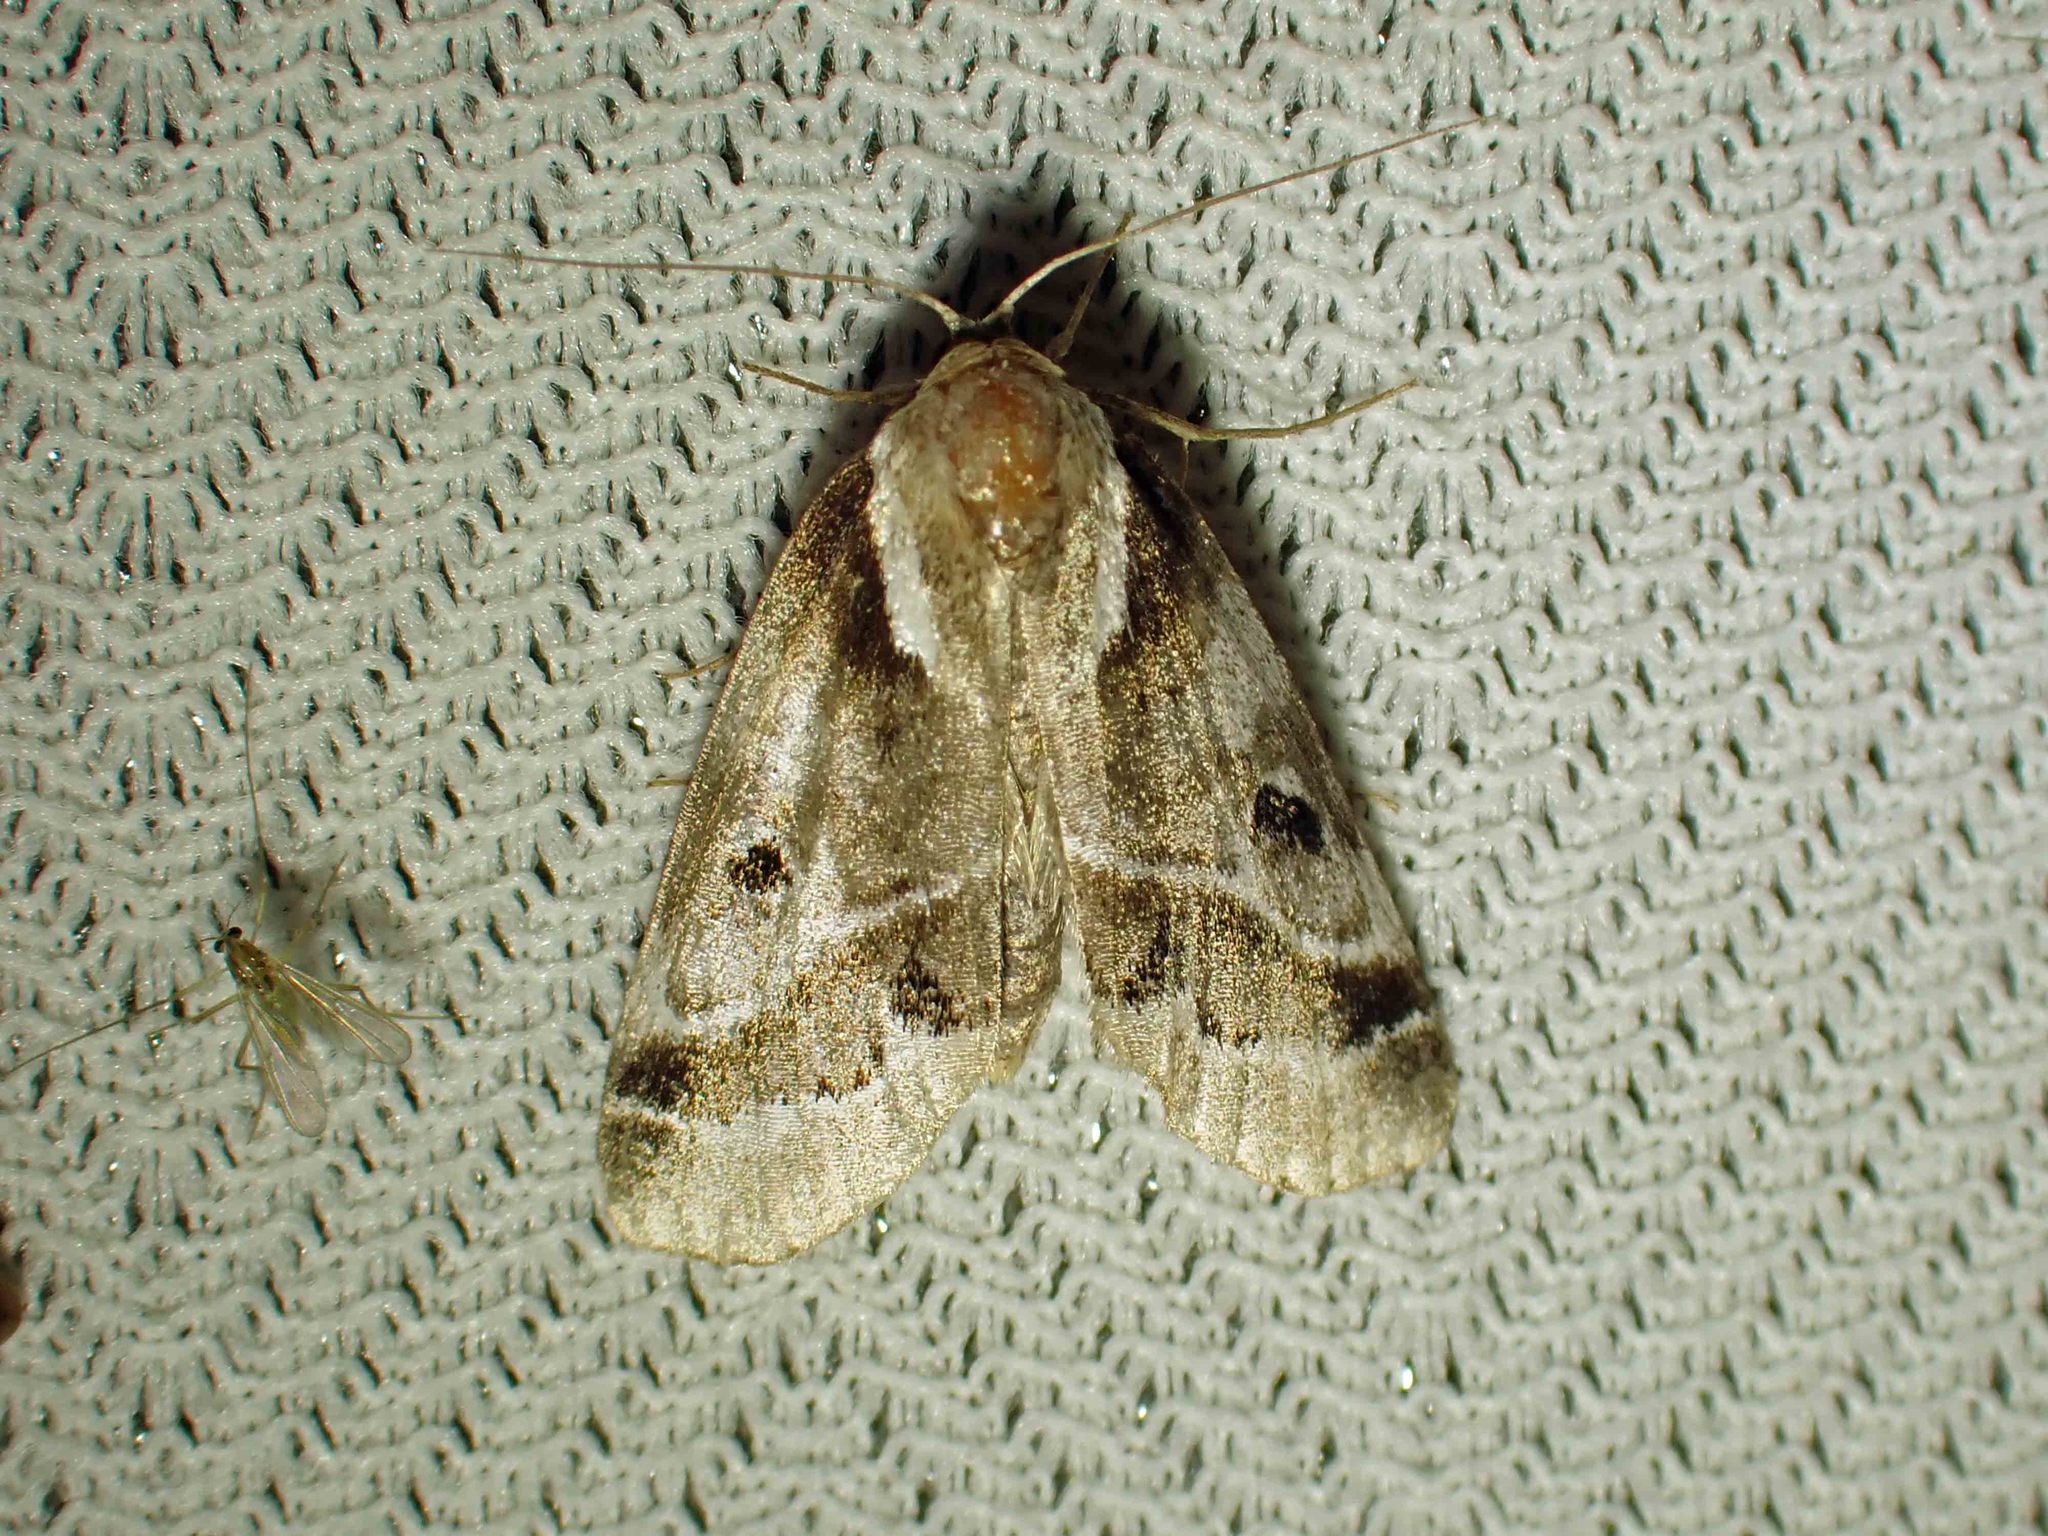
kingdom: Animalia
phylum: Arthropoda
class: Insecta
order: Lepidoptera
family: Nolidae
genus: Baileya
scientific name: Baileya doubledayi
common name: Doubleday's baileya moth
